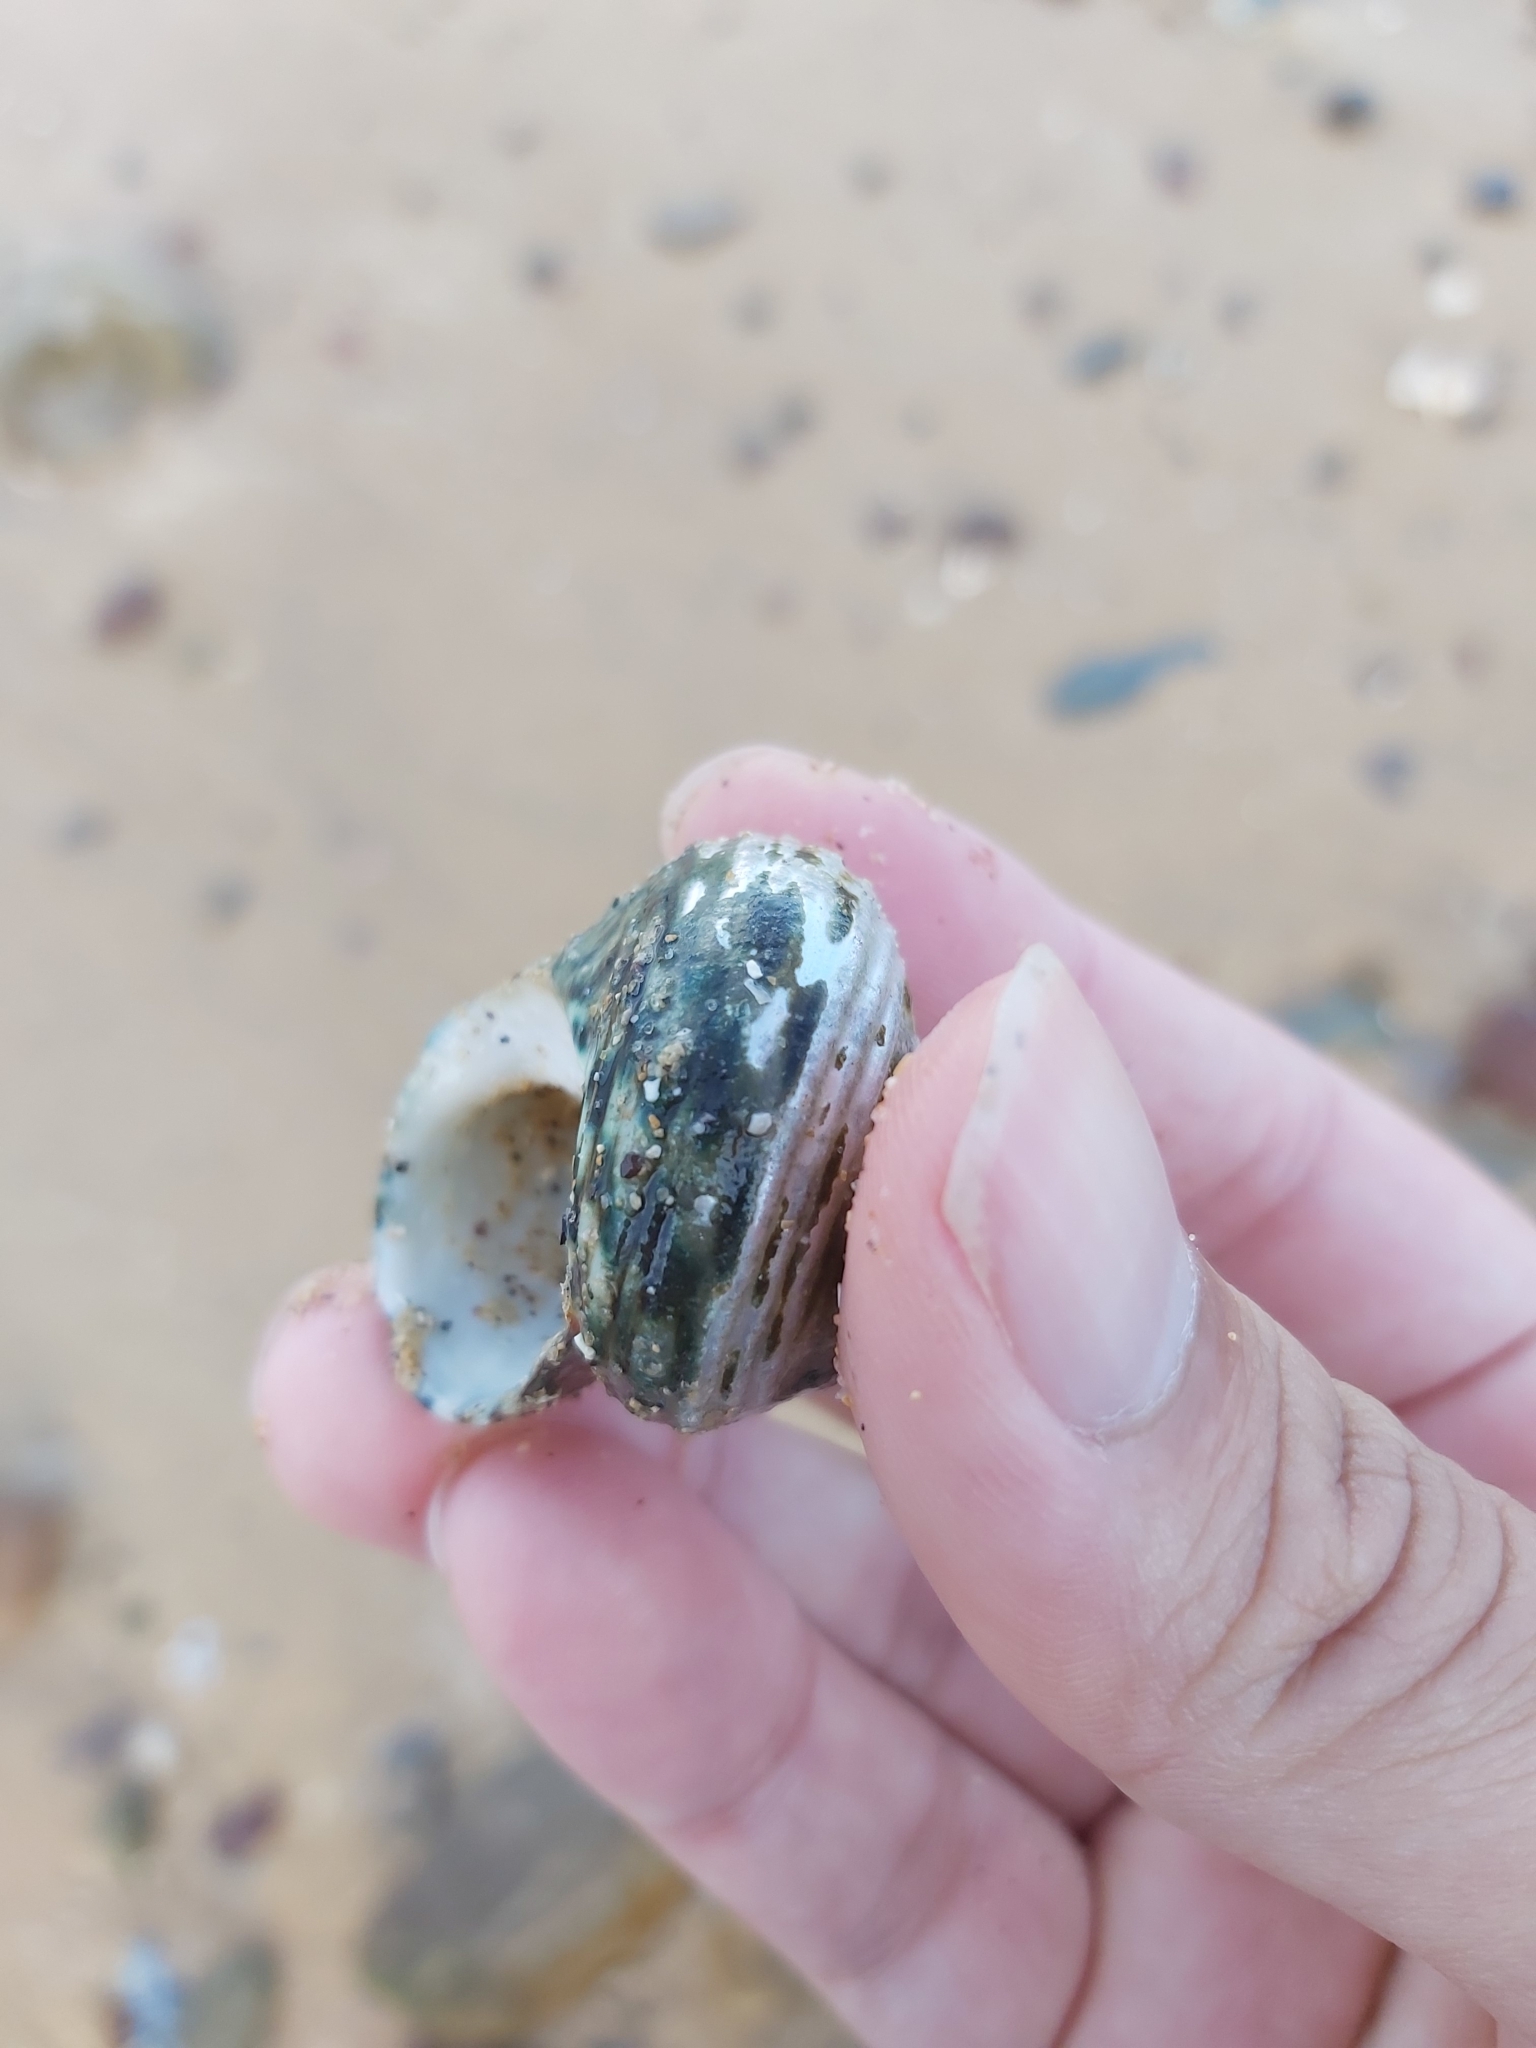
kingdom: Animalia
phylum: Mollusca
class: Gastropoda
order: Trochida
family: Turbinidae
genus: Lunella
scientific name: Lunella undulata
